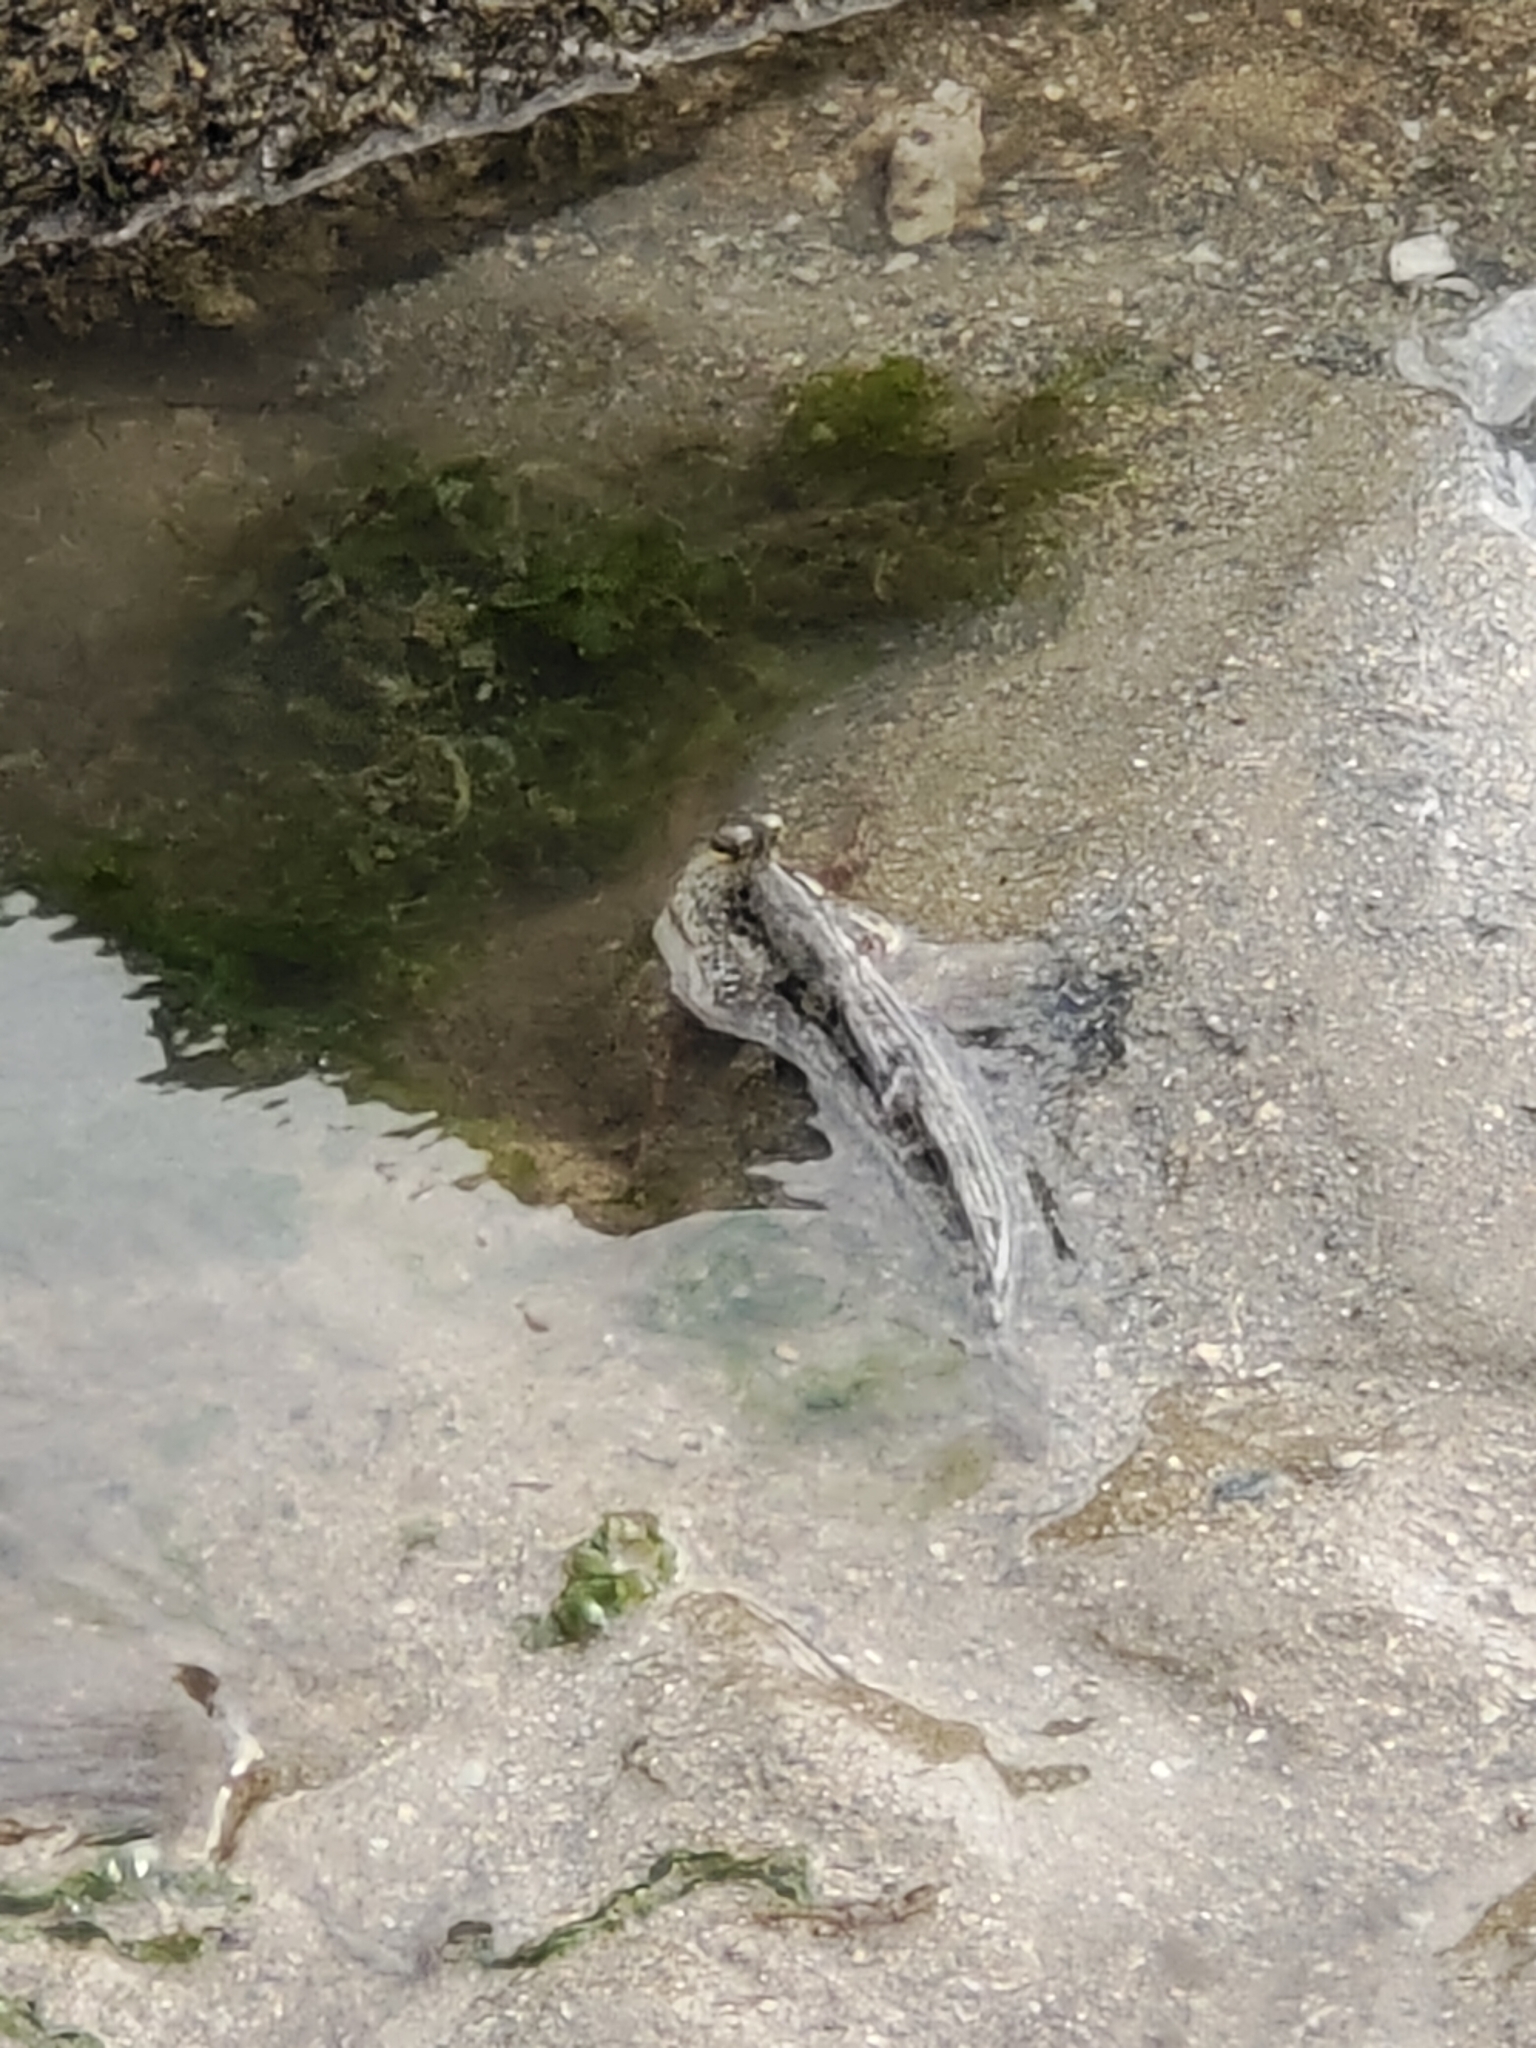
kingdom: Animalia
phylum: Chordata
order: Perciformes
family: Gobiidae
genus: Periophthalmus
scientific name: Periophthalmus chrysospilos
